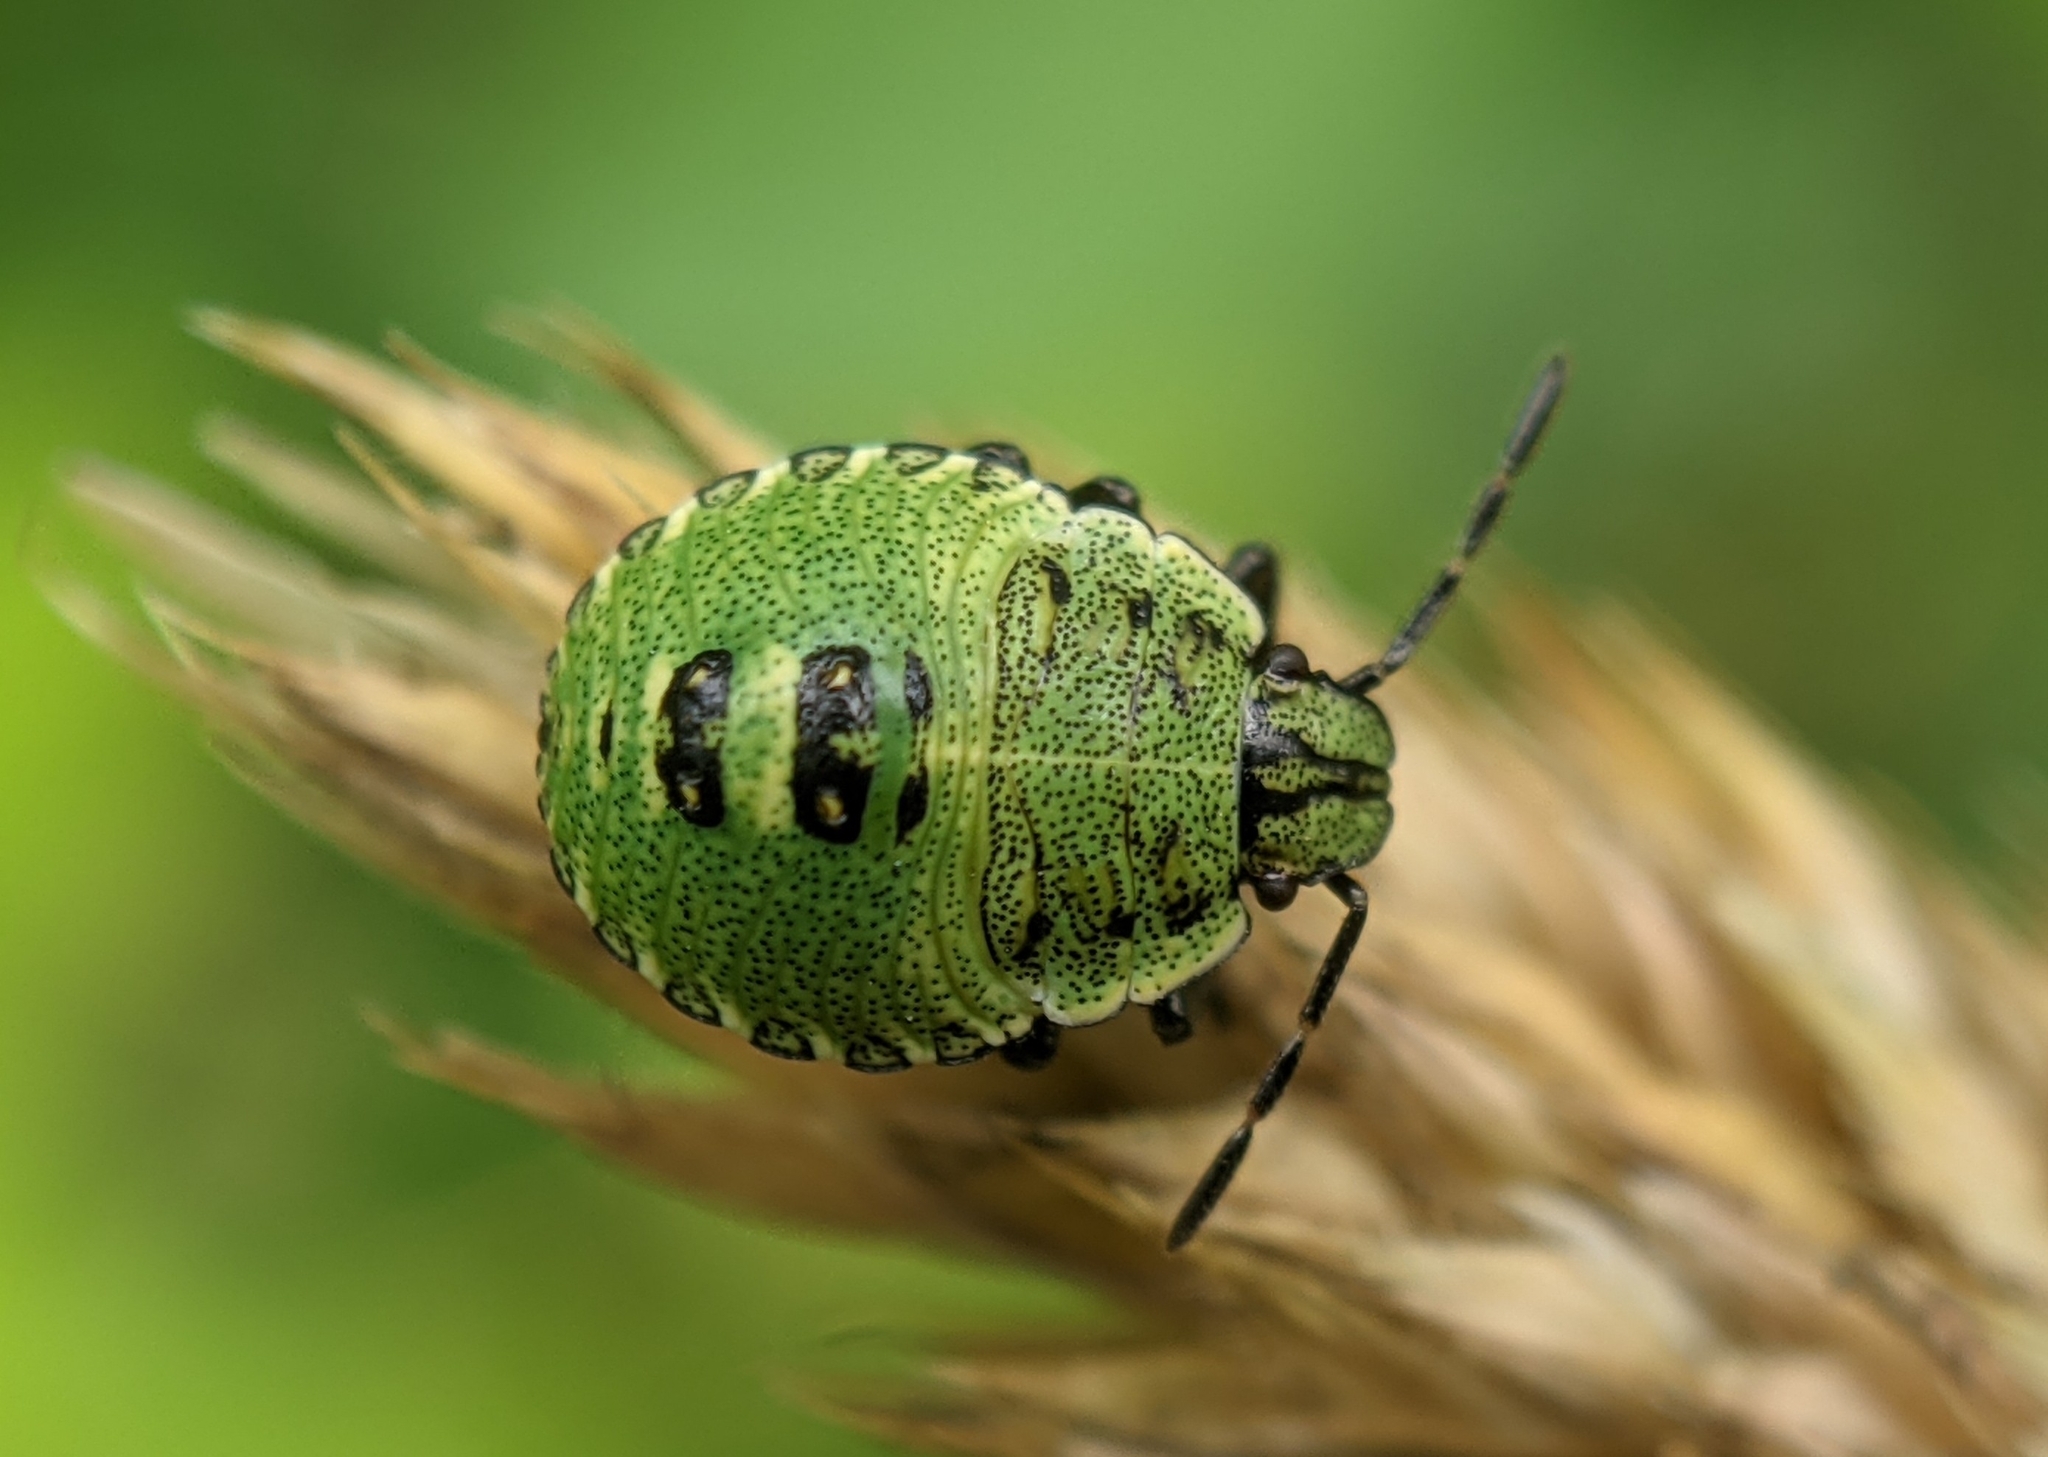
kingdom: Animalia
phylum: Arthropoda
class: Insecta
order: Hemiptera
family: Pentatomidae
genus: Palomena
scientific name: Palomena prasina
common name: Green shieldbug
